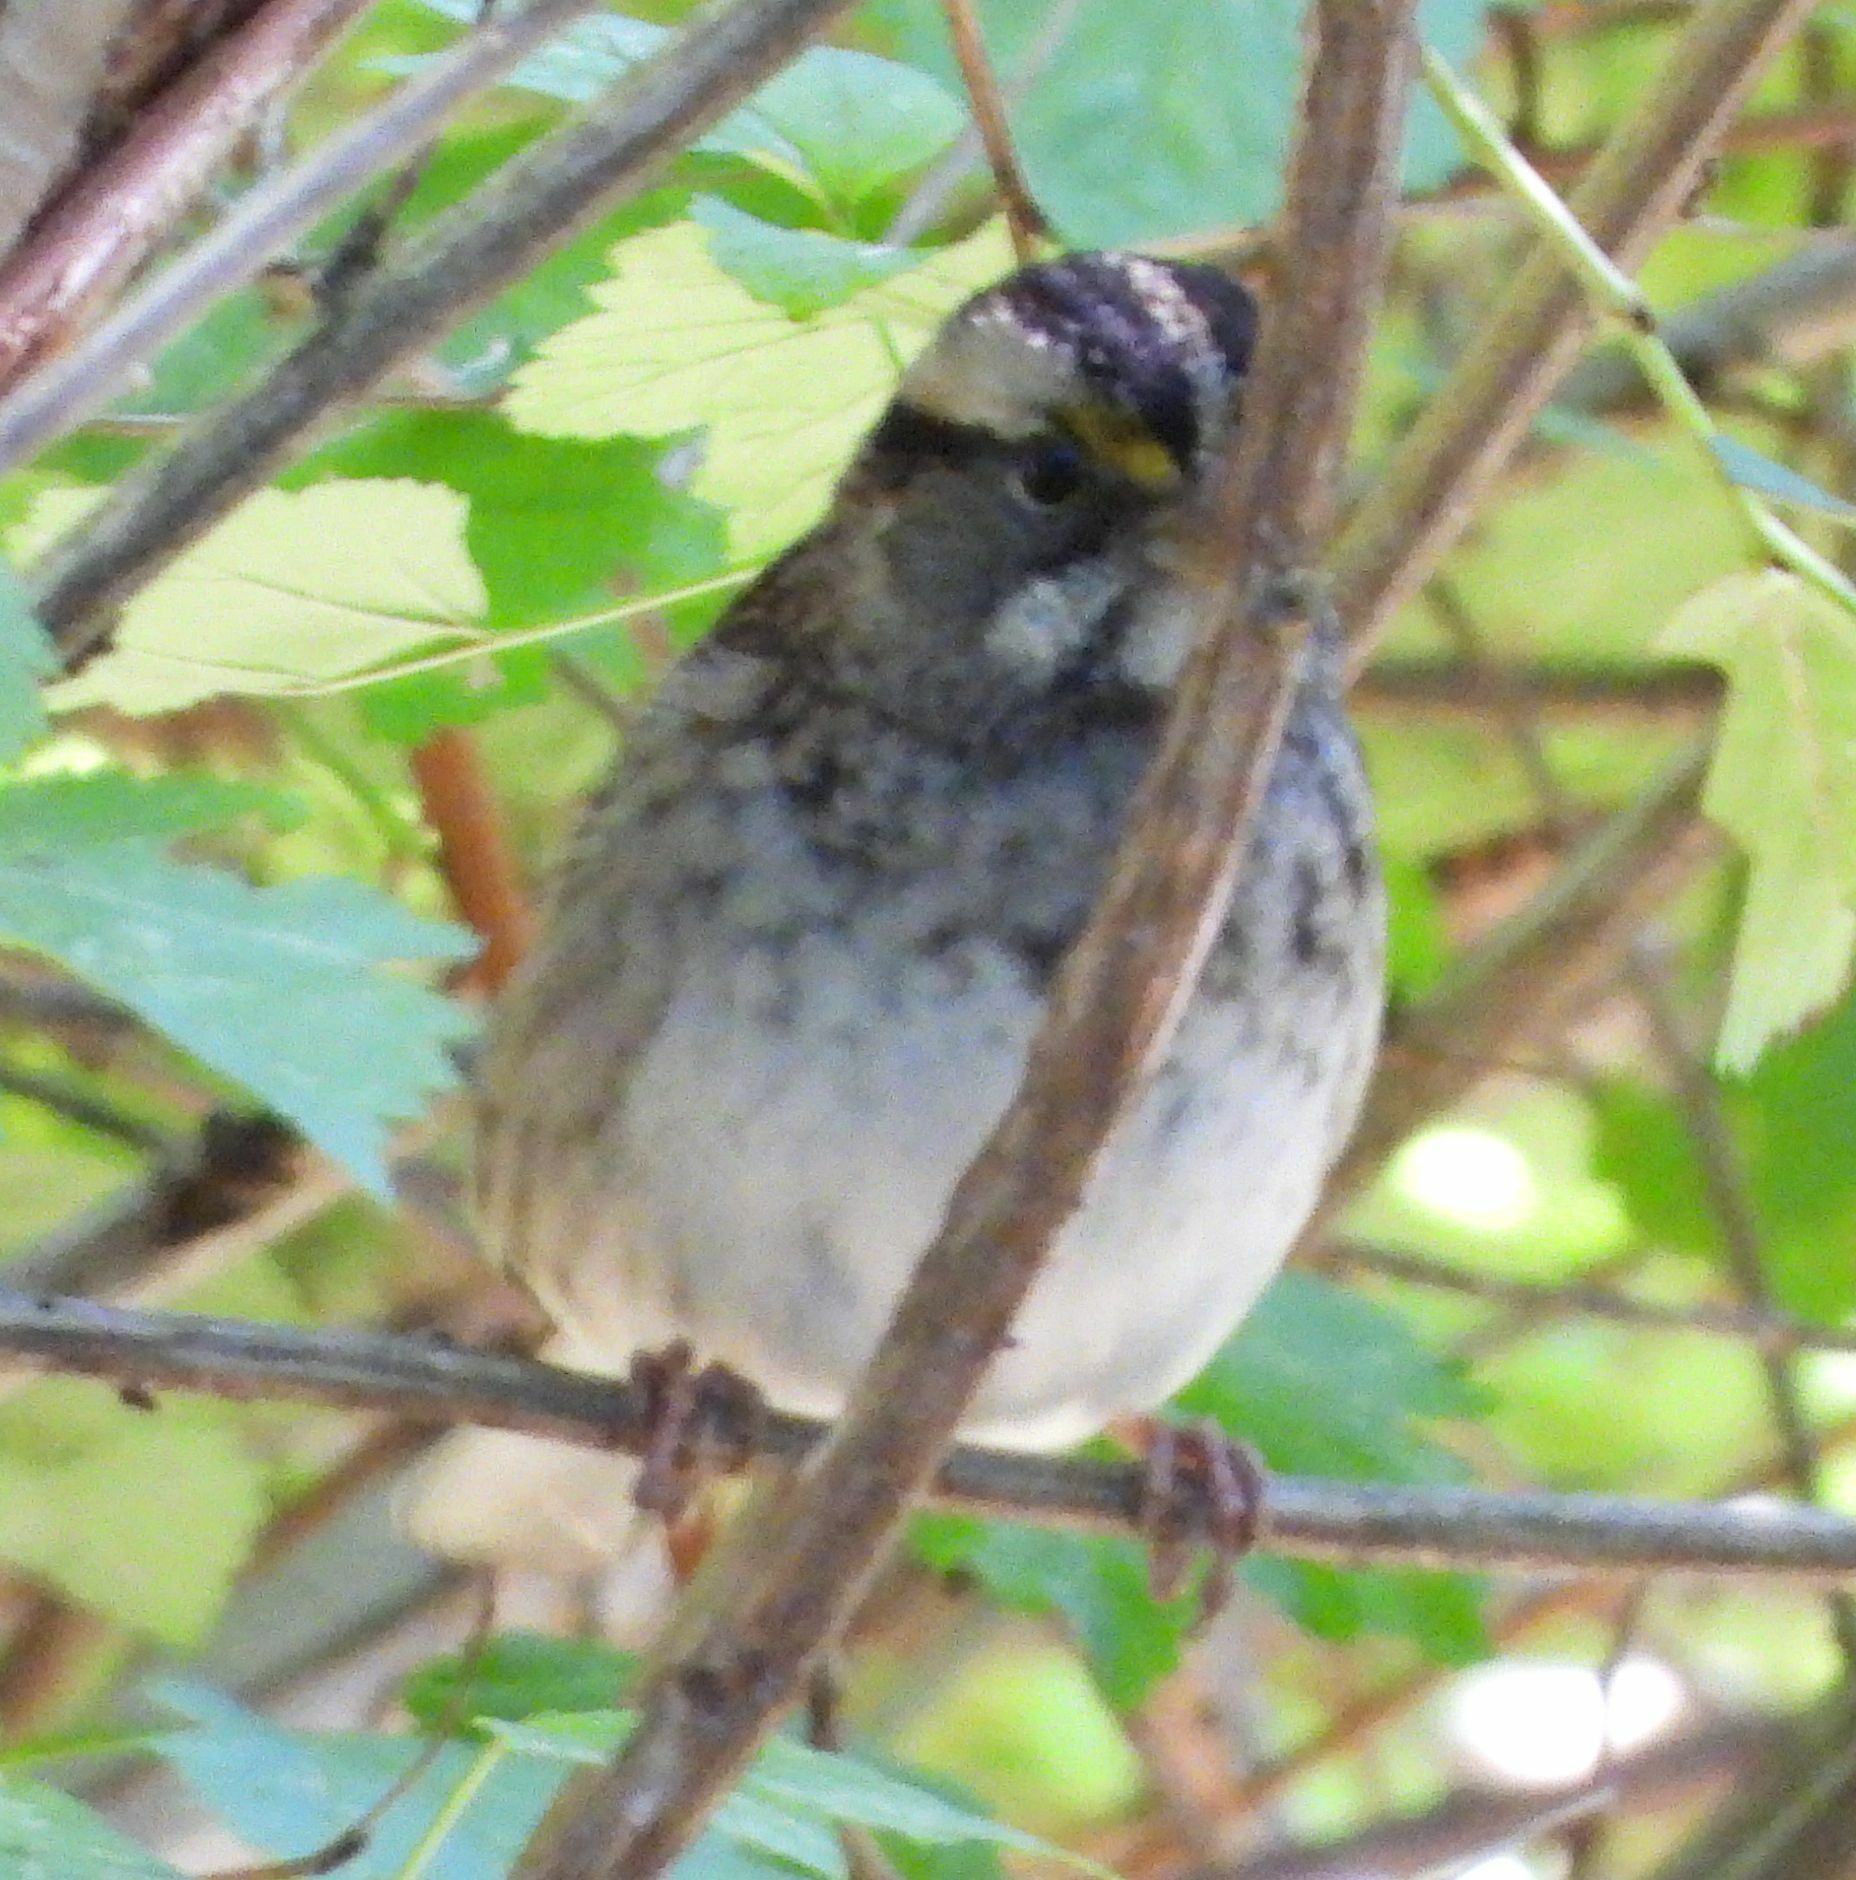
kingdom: Animalia
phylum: Chordata
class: Aves
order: Passeriformes
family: Passerellidae
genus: Zonotrichia
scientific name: Zonotrichia albicollis
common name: White-throated sparrow
